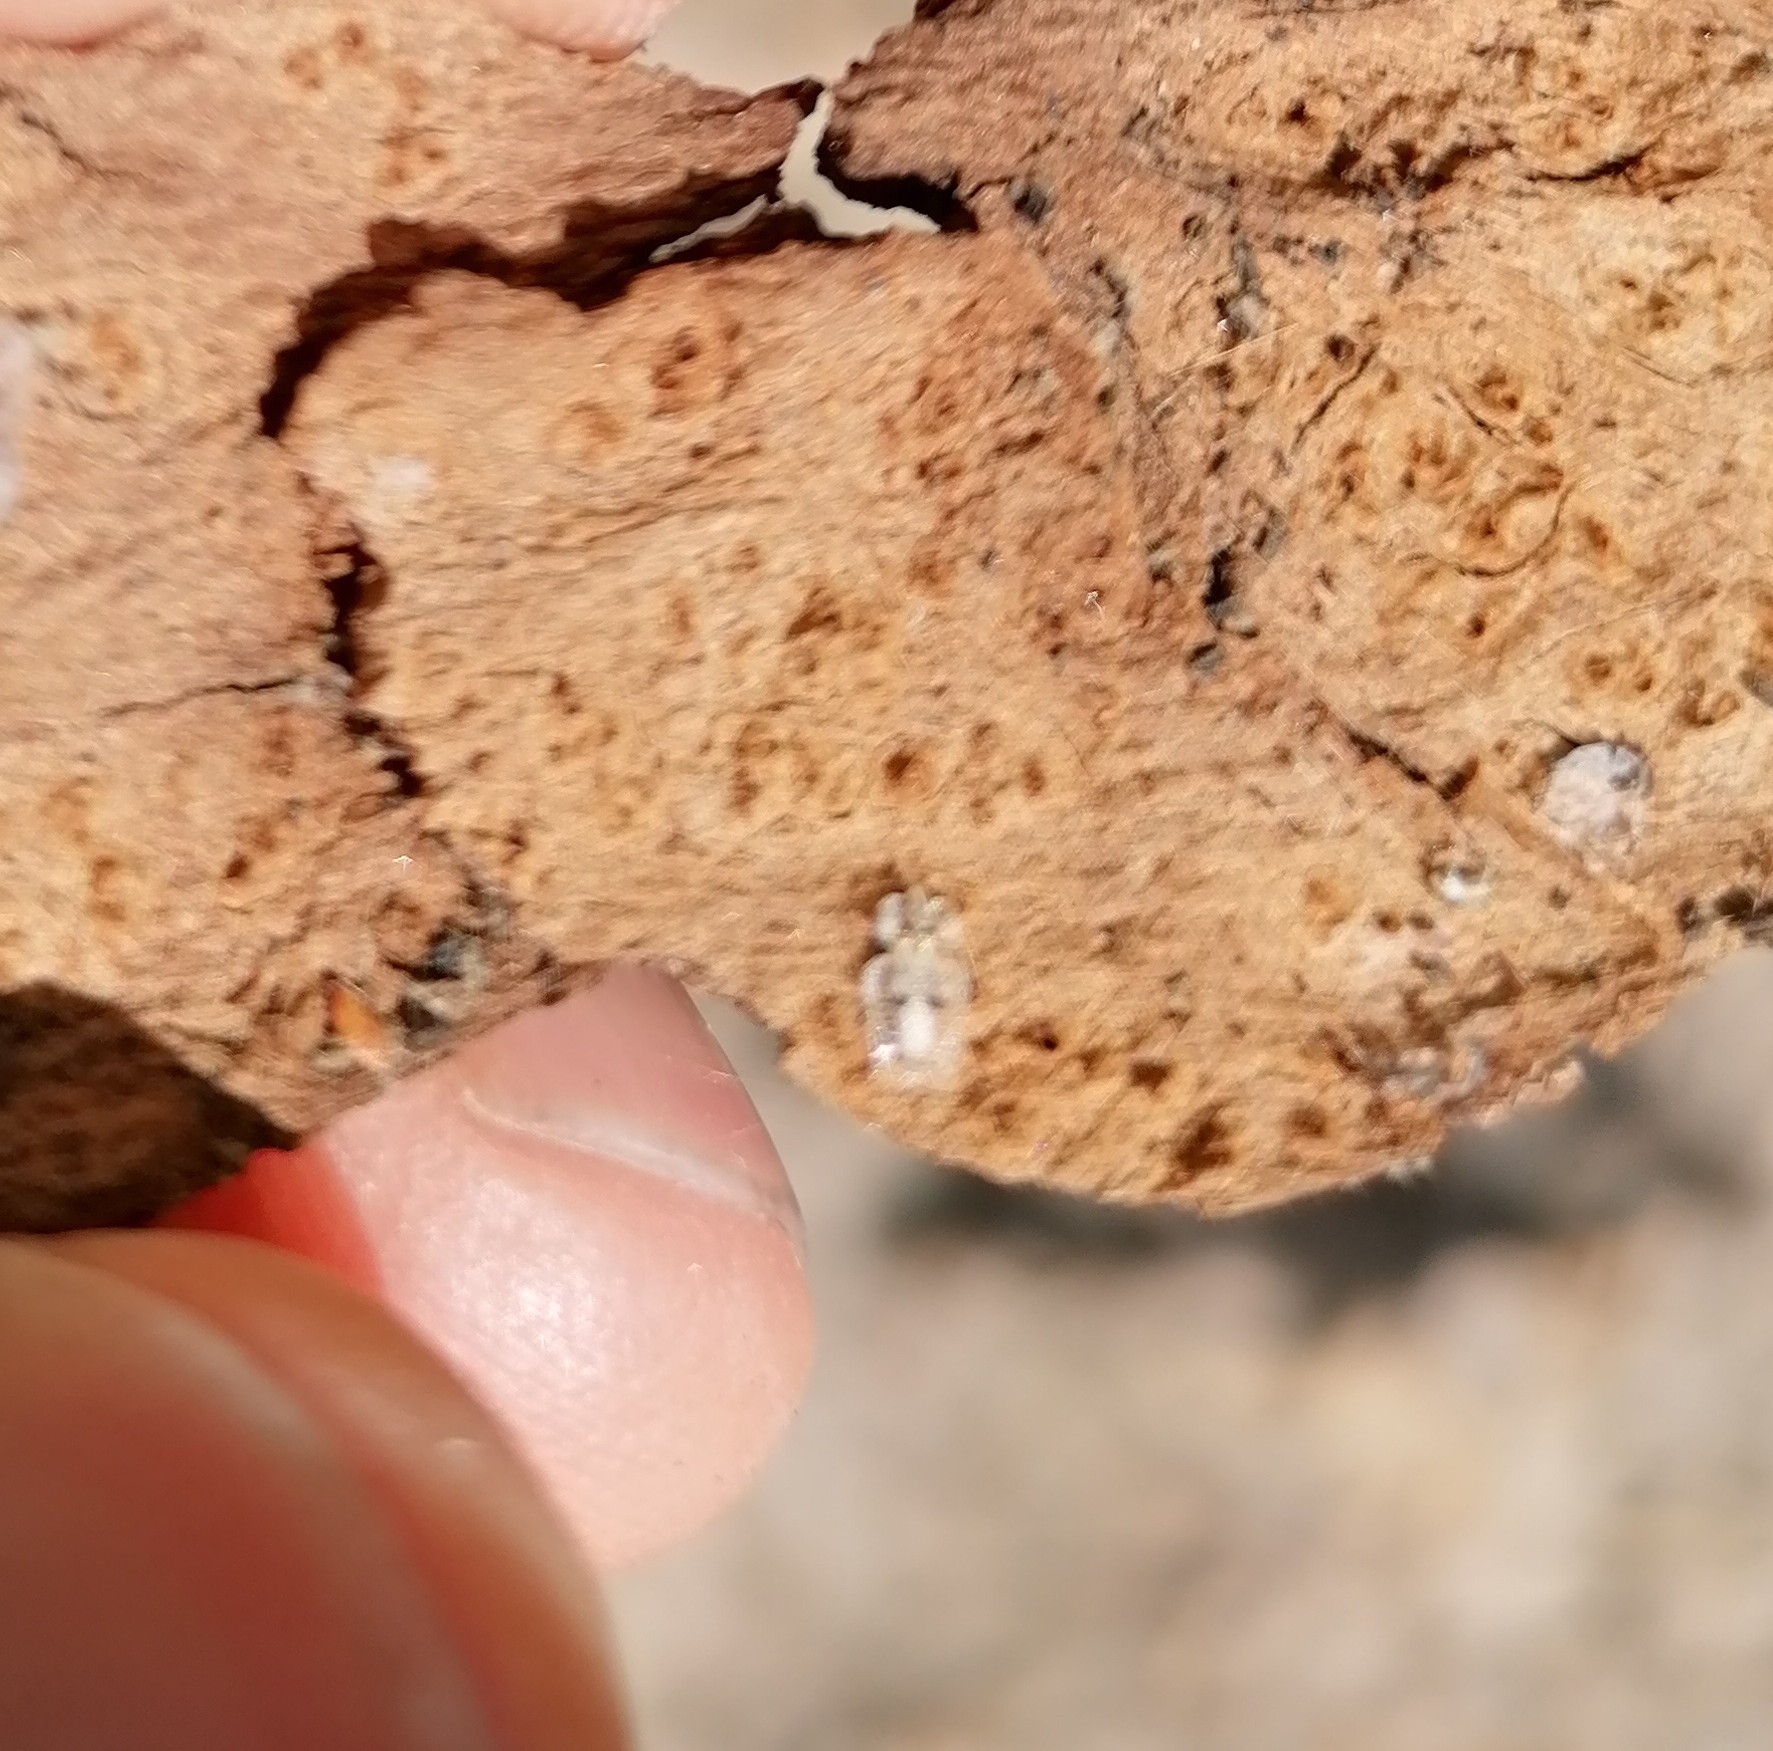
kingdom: Animalia
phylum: Arthropoda
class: Insecta
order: Hemiptera
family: Tingidae
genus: Corythucha
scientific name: Corythucha ciliata
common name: Sycamore lace bug
